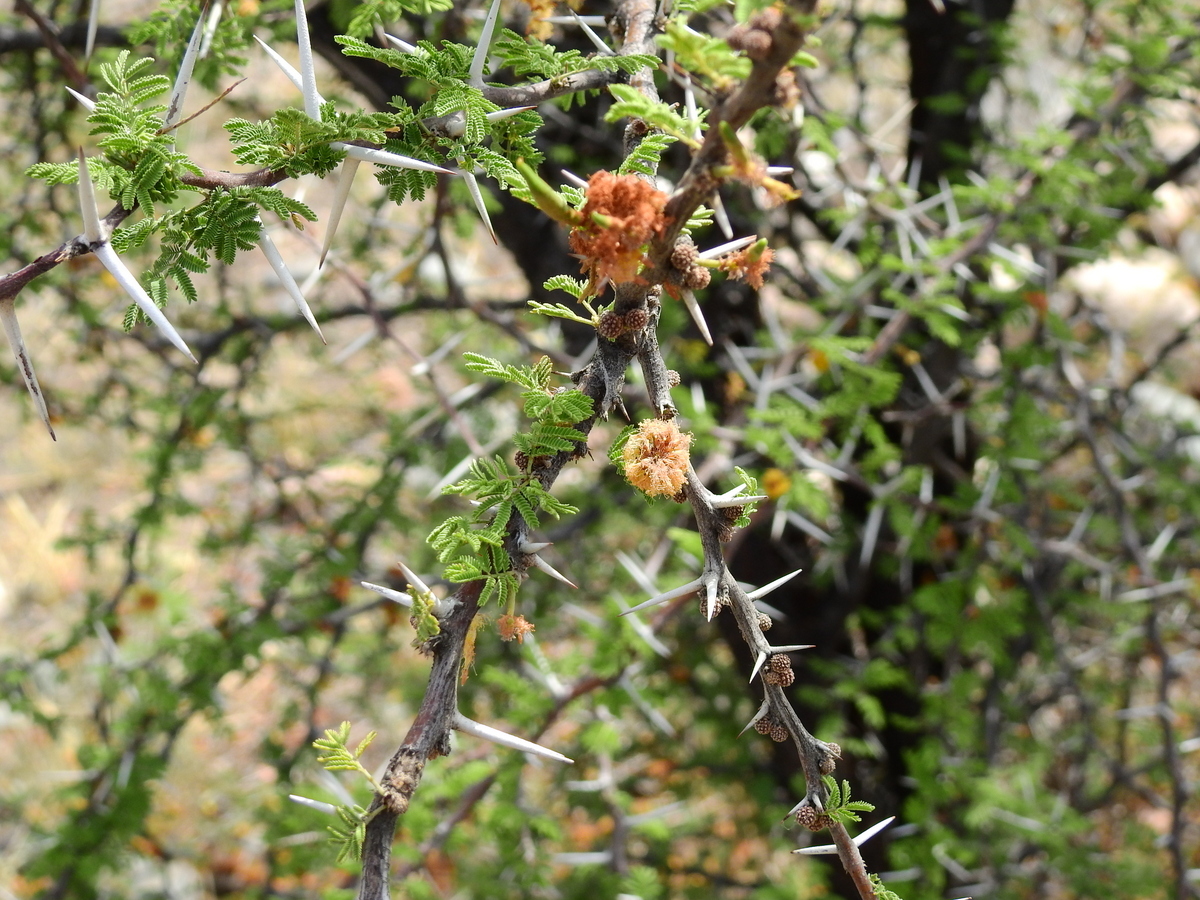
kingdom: Plantae
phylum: Tracheophyta
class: Magnoliopsida
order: Fabales
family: Fabaceae
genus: Vachellia
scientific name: Vachellia caven
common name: Roman cassie
